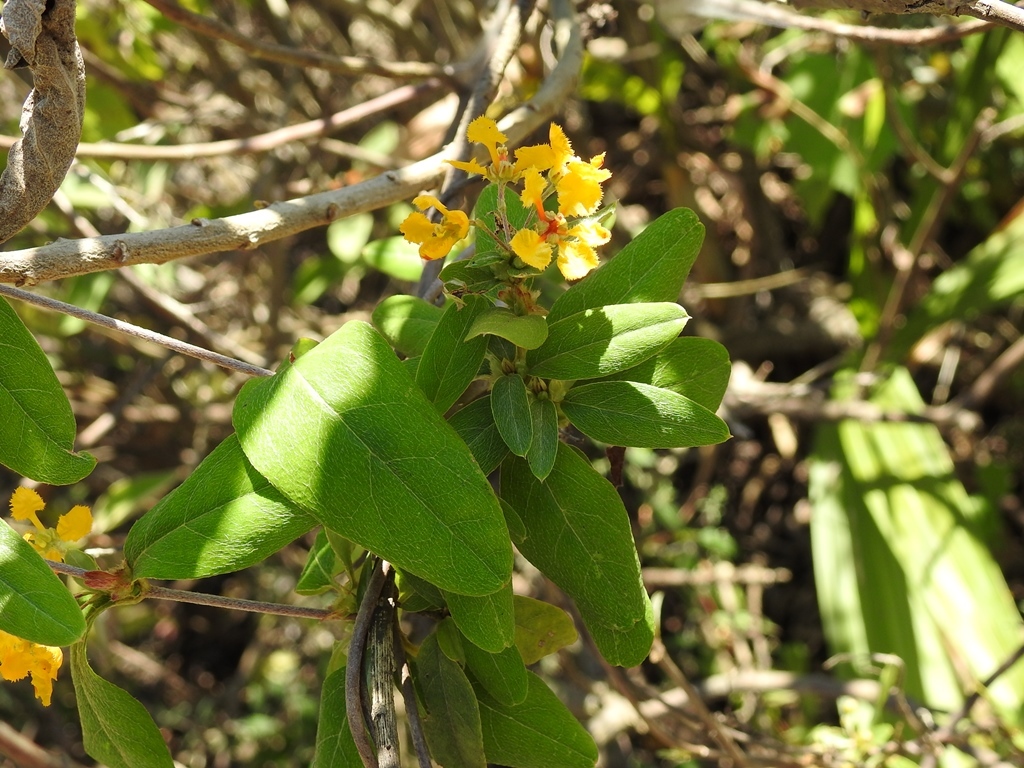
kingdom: Plantae
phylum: Tracheophyta
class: Magnoliopsida
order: Malpighiales
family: Malpighiaceae
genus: Gaudichaudia
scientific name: Gaudichaudia cynanchoides
